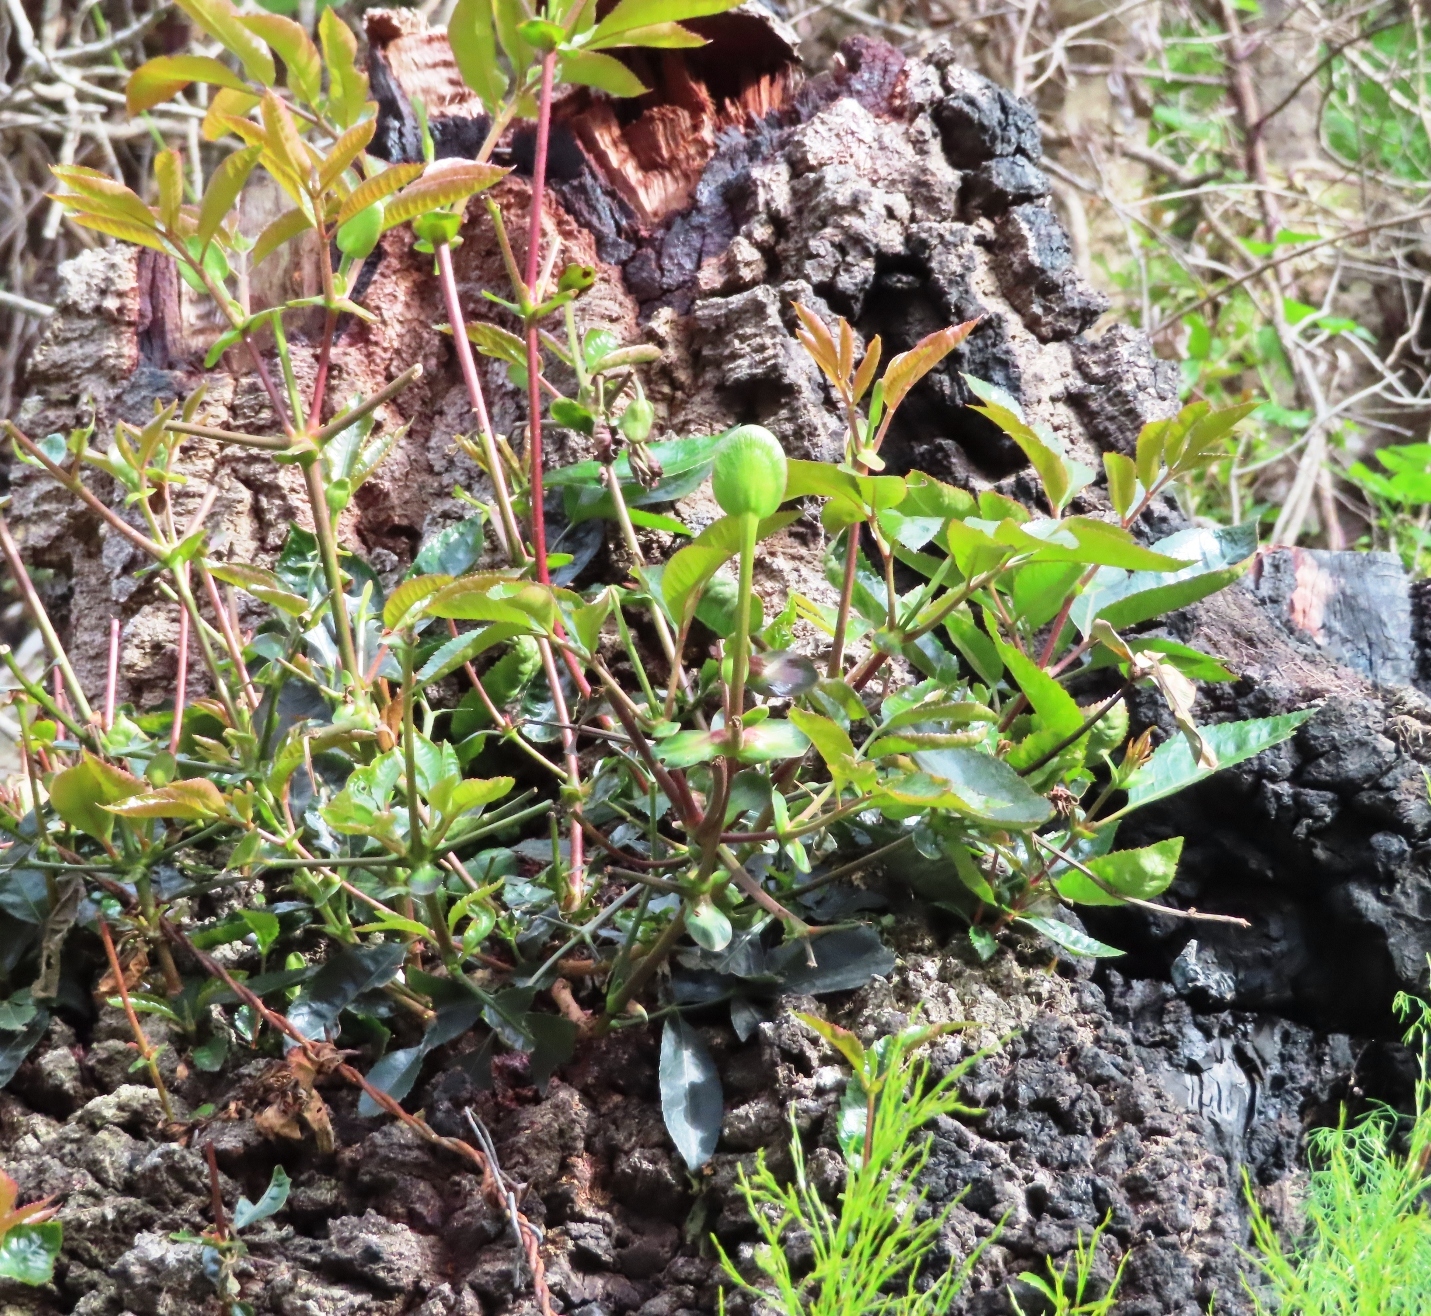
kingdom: Plantae
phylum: Tracheophyta
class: Magnoliopsida
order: Oxalidales
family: Cunoniaceae
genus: Cunonia
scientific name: Cunonia capensis
